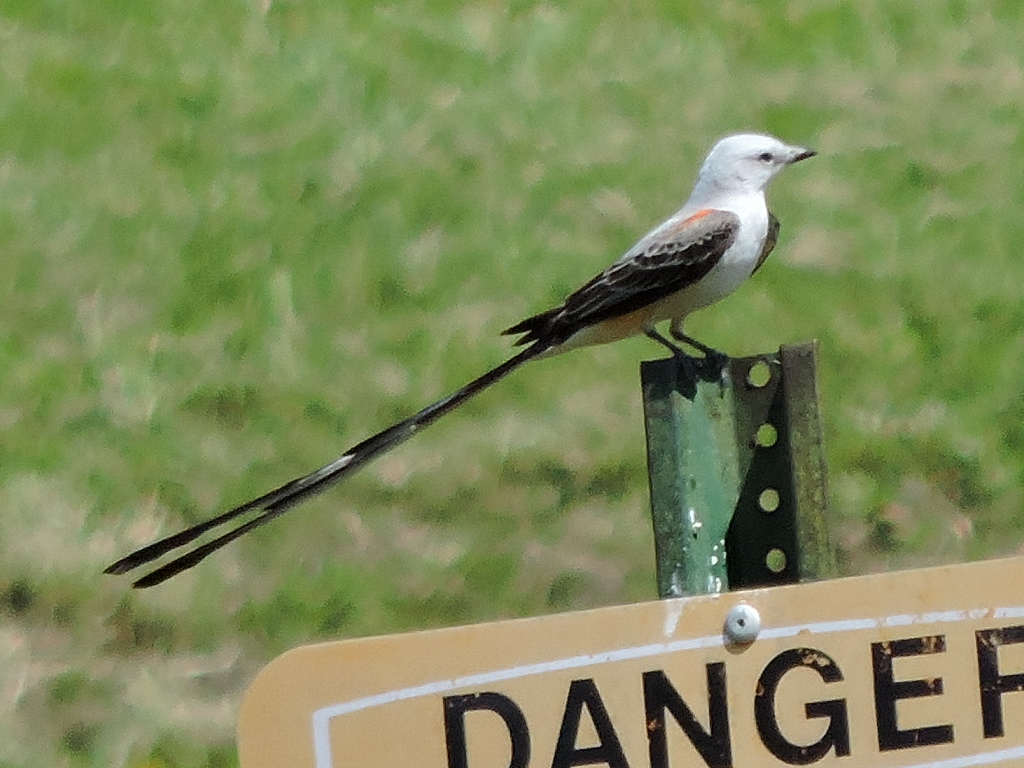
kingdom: Animalia
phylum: Chordata
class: Aves
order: Passeriformes
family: Tyrannidae
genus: Tyrannus
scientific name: Tyrannus forficatus
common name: Scissor-tailed flycatcher
